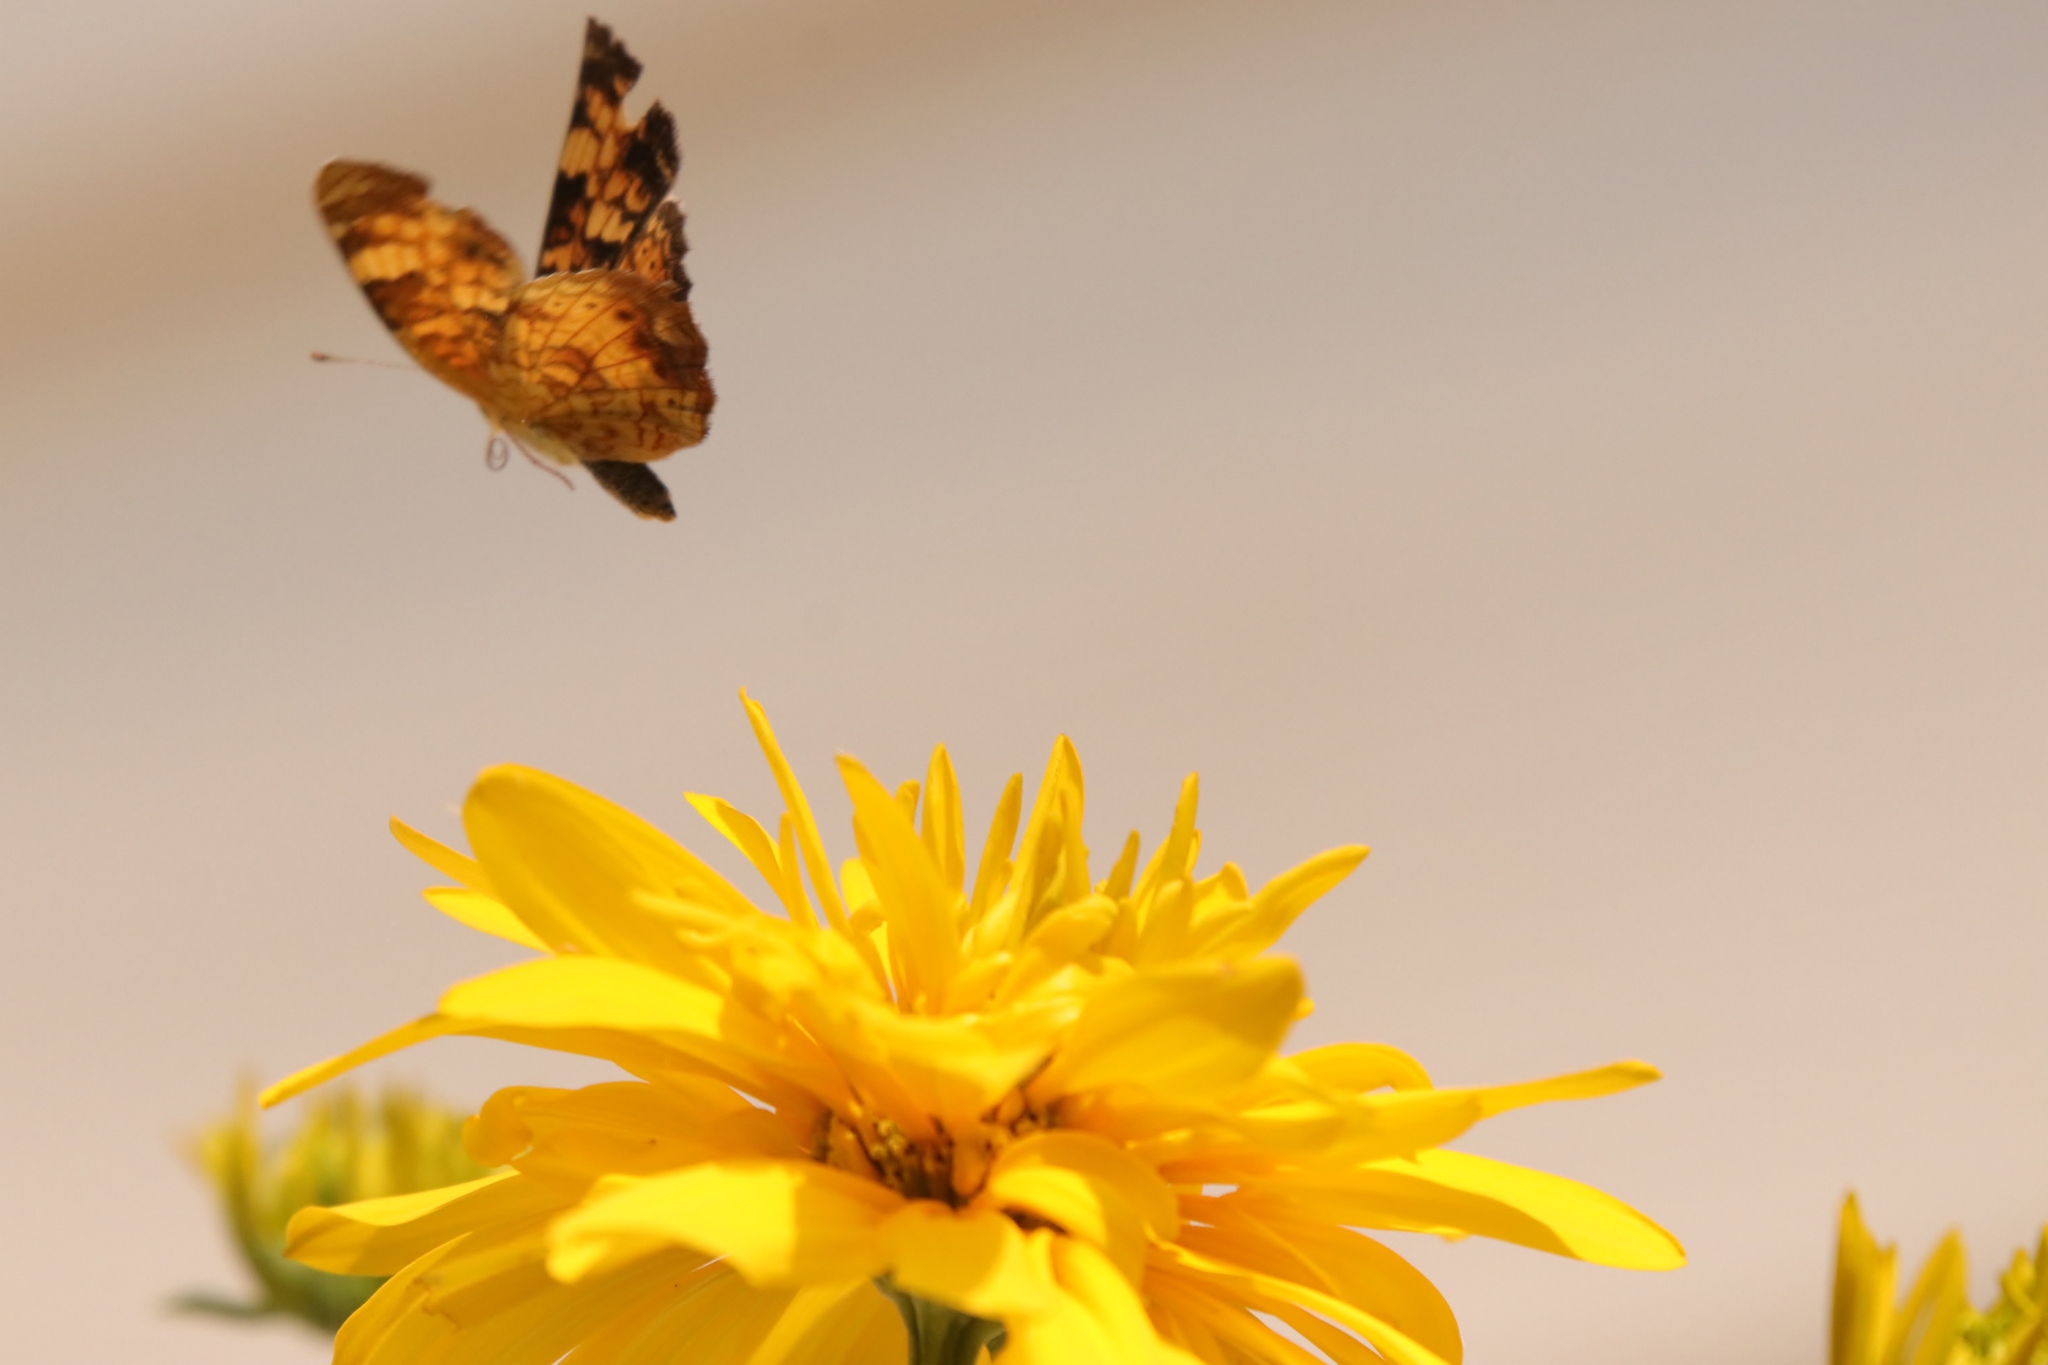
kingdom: Animalia
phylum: Arthropoda
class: Insecta
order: Lepidoptera
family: Nymphalidae
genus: Phyciodes
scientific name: Phyciodes tharos
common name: Pearl crescent
